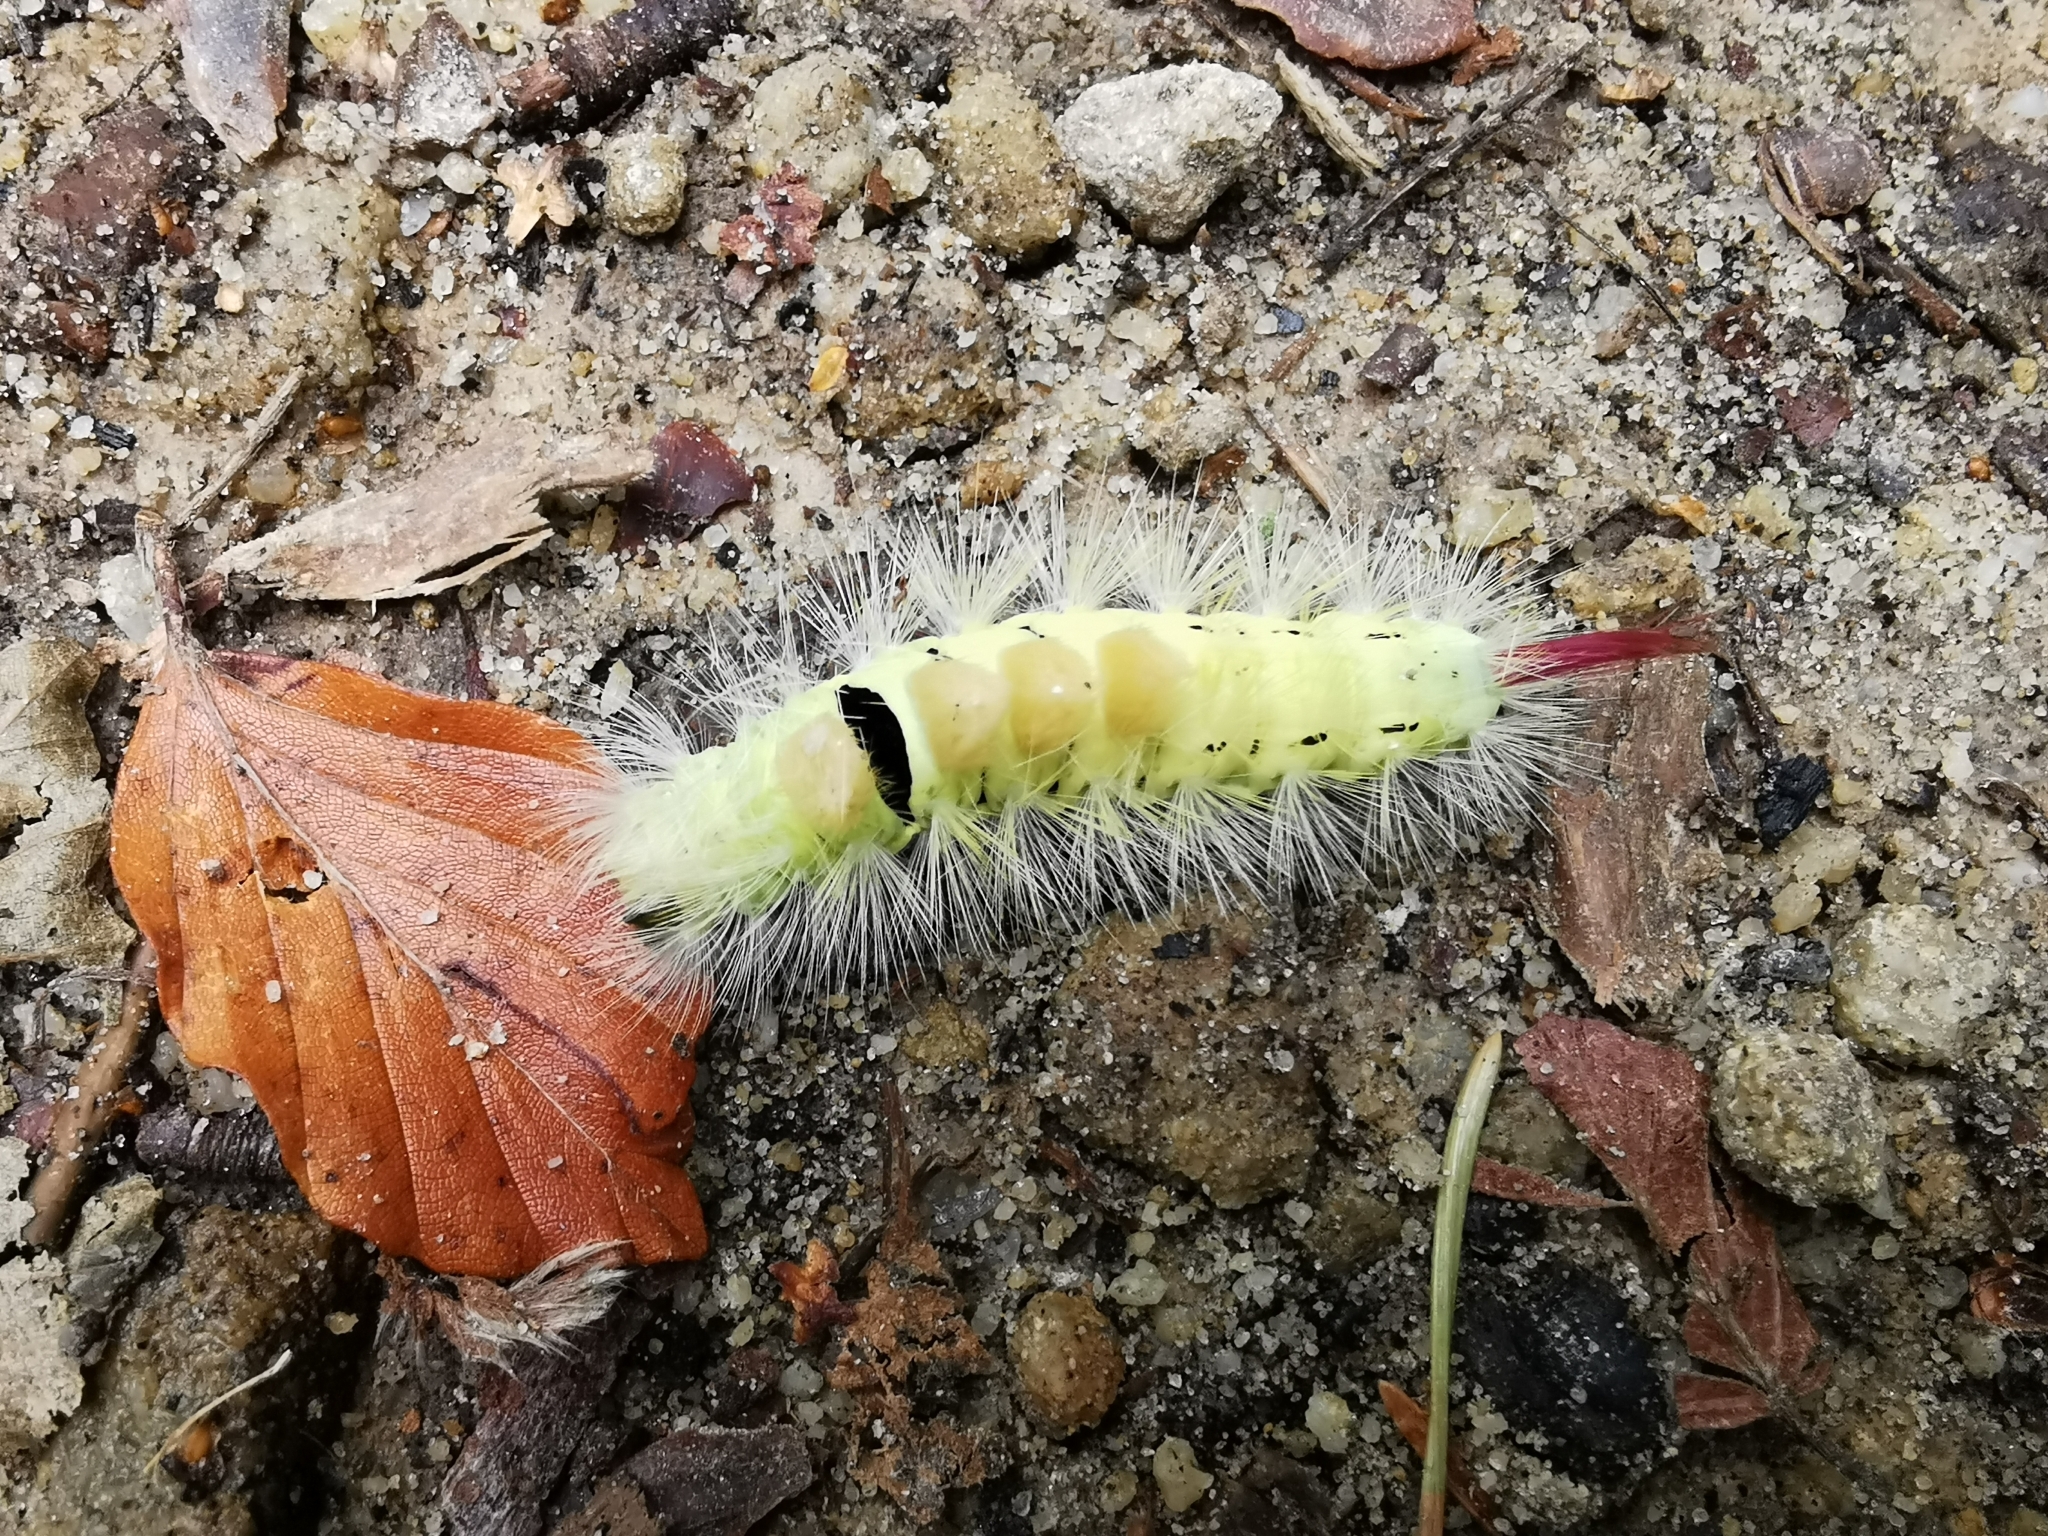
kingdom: Animalia
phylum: Arthropoda
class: Insecta
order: Lepidoptera
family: Erebidae
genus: Calliteara
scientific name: Calliteara pudibunda
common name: Pale tussock
